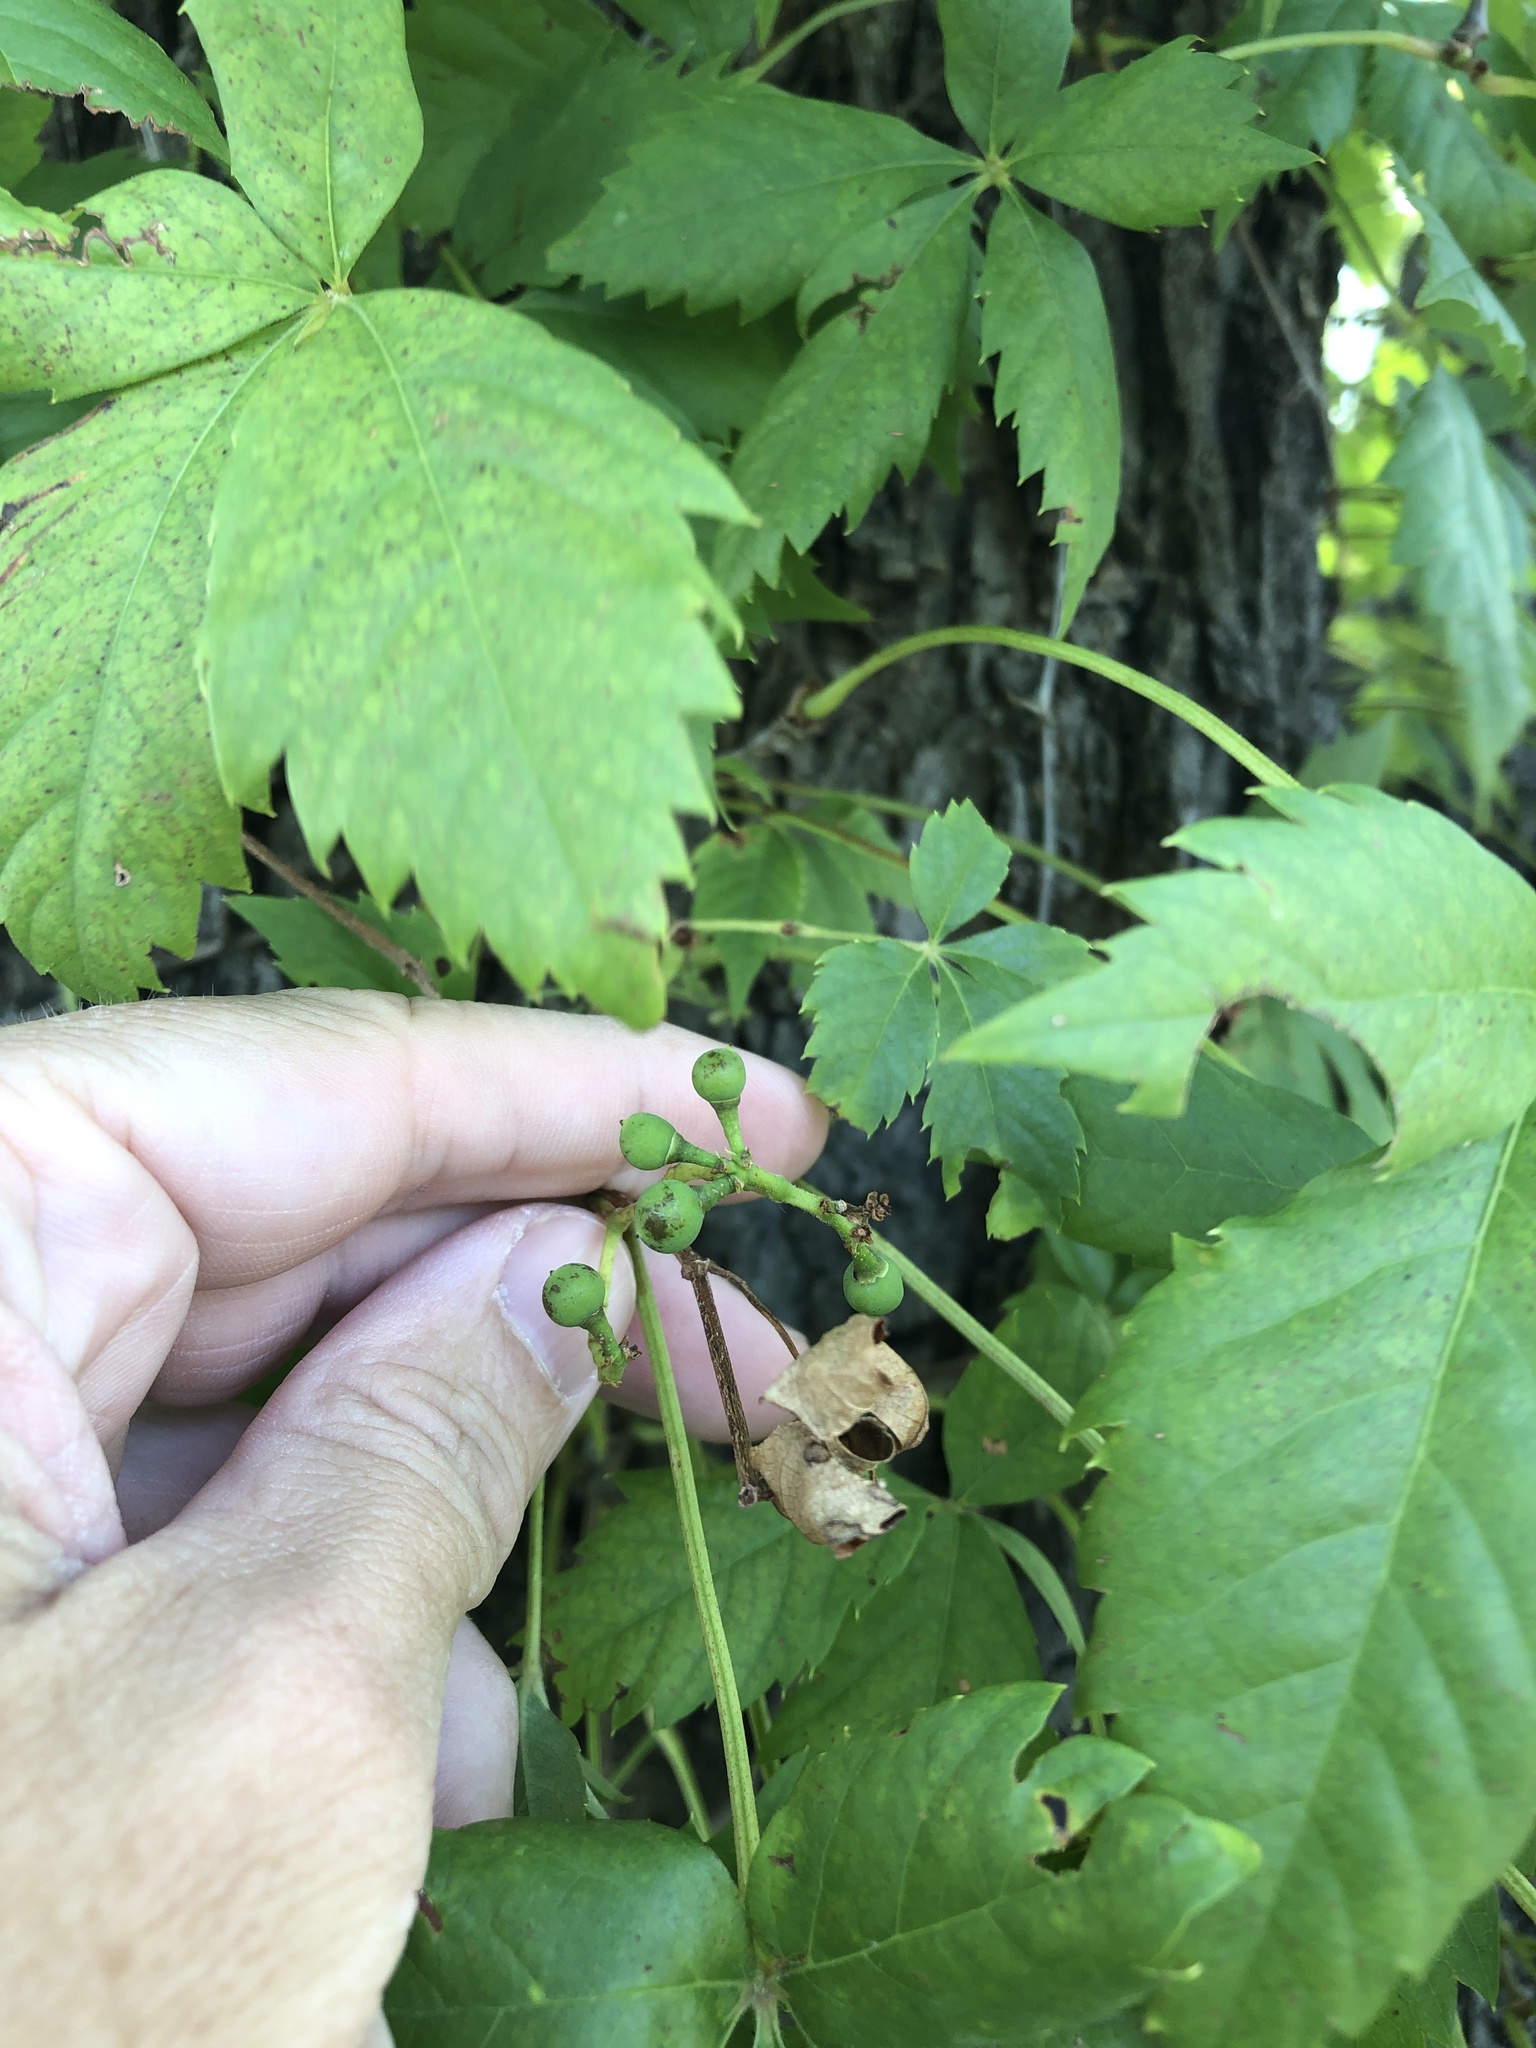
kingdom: Plantae
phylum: Tracheophyta
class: Magnoliopsida
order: Vitales
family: Vitaceae
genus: Parthenocissus
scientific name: Parthenocissus quinquefolia
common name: Virginia-creeper
